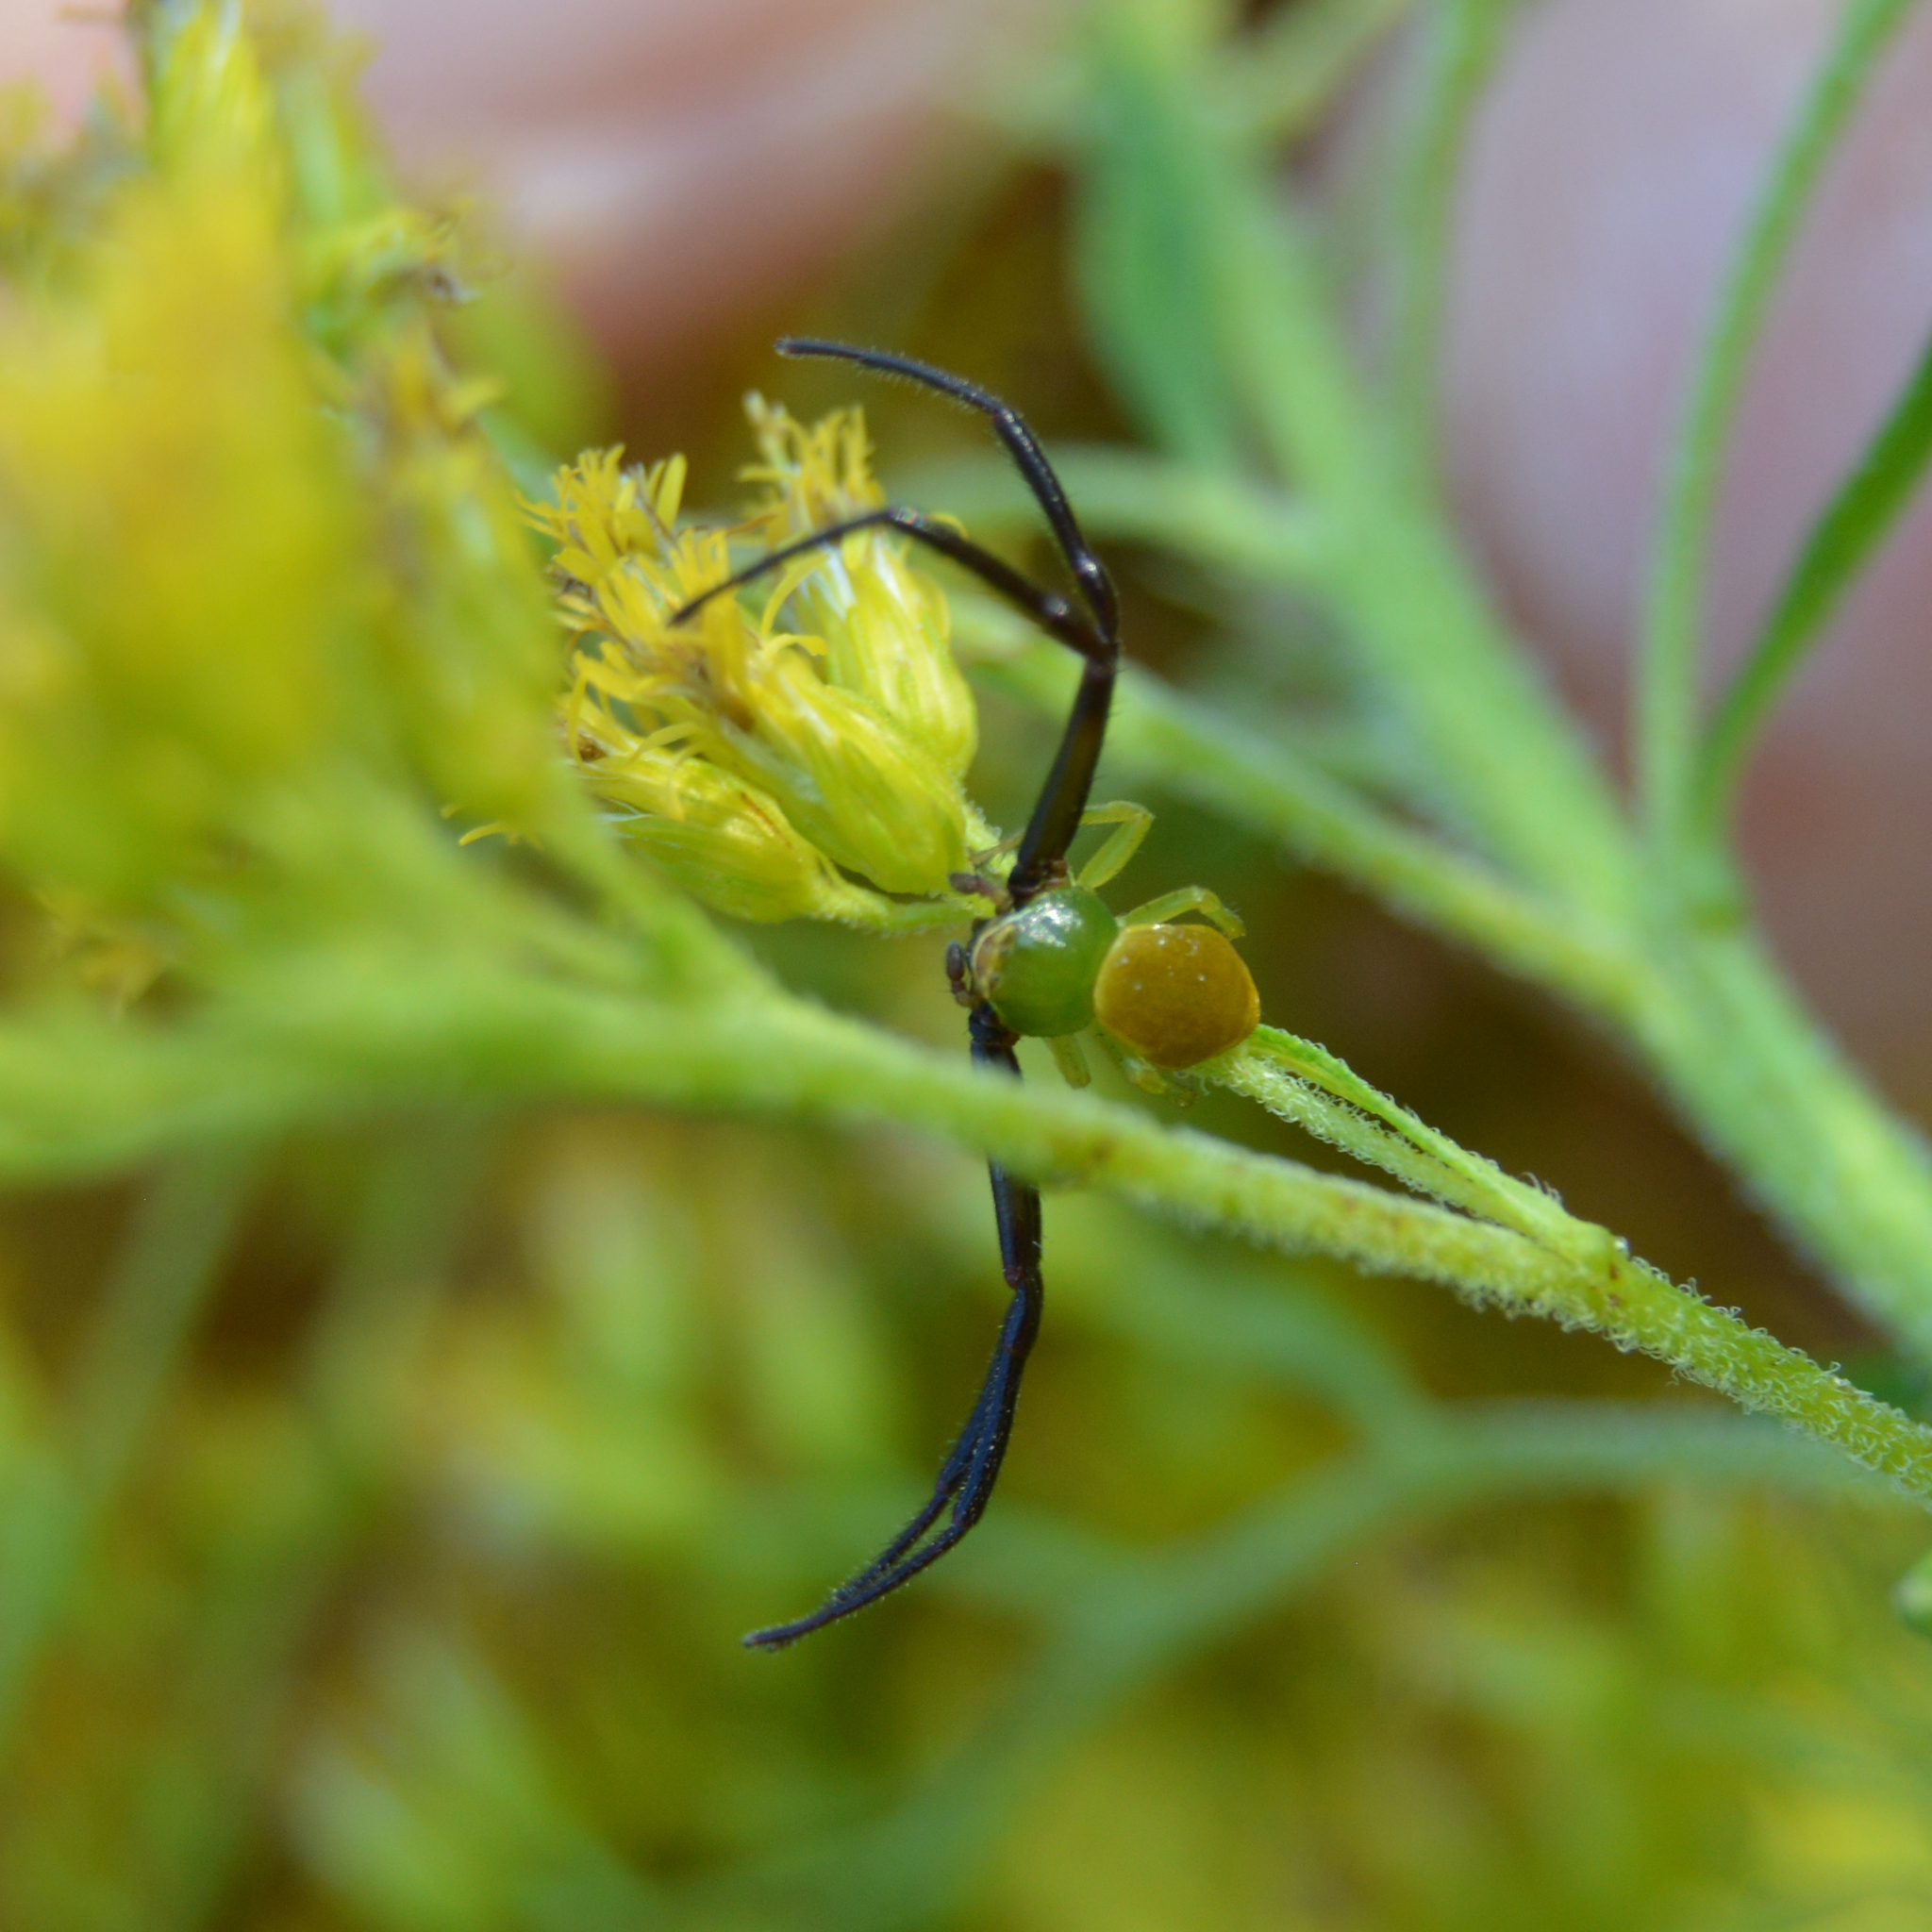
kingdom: Animalia
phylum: Arthropoda
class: Arachnida
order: Araneae
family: Thomisidae
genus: Misumenoides
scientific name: Misumenoides formosipes
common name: White-banded crab spider
